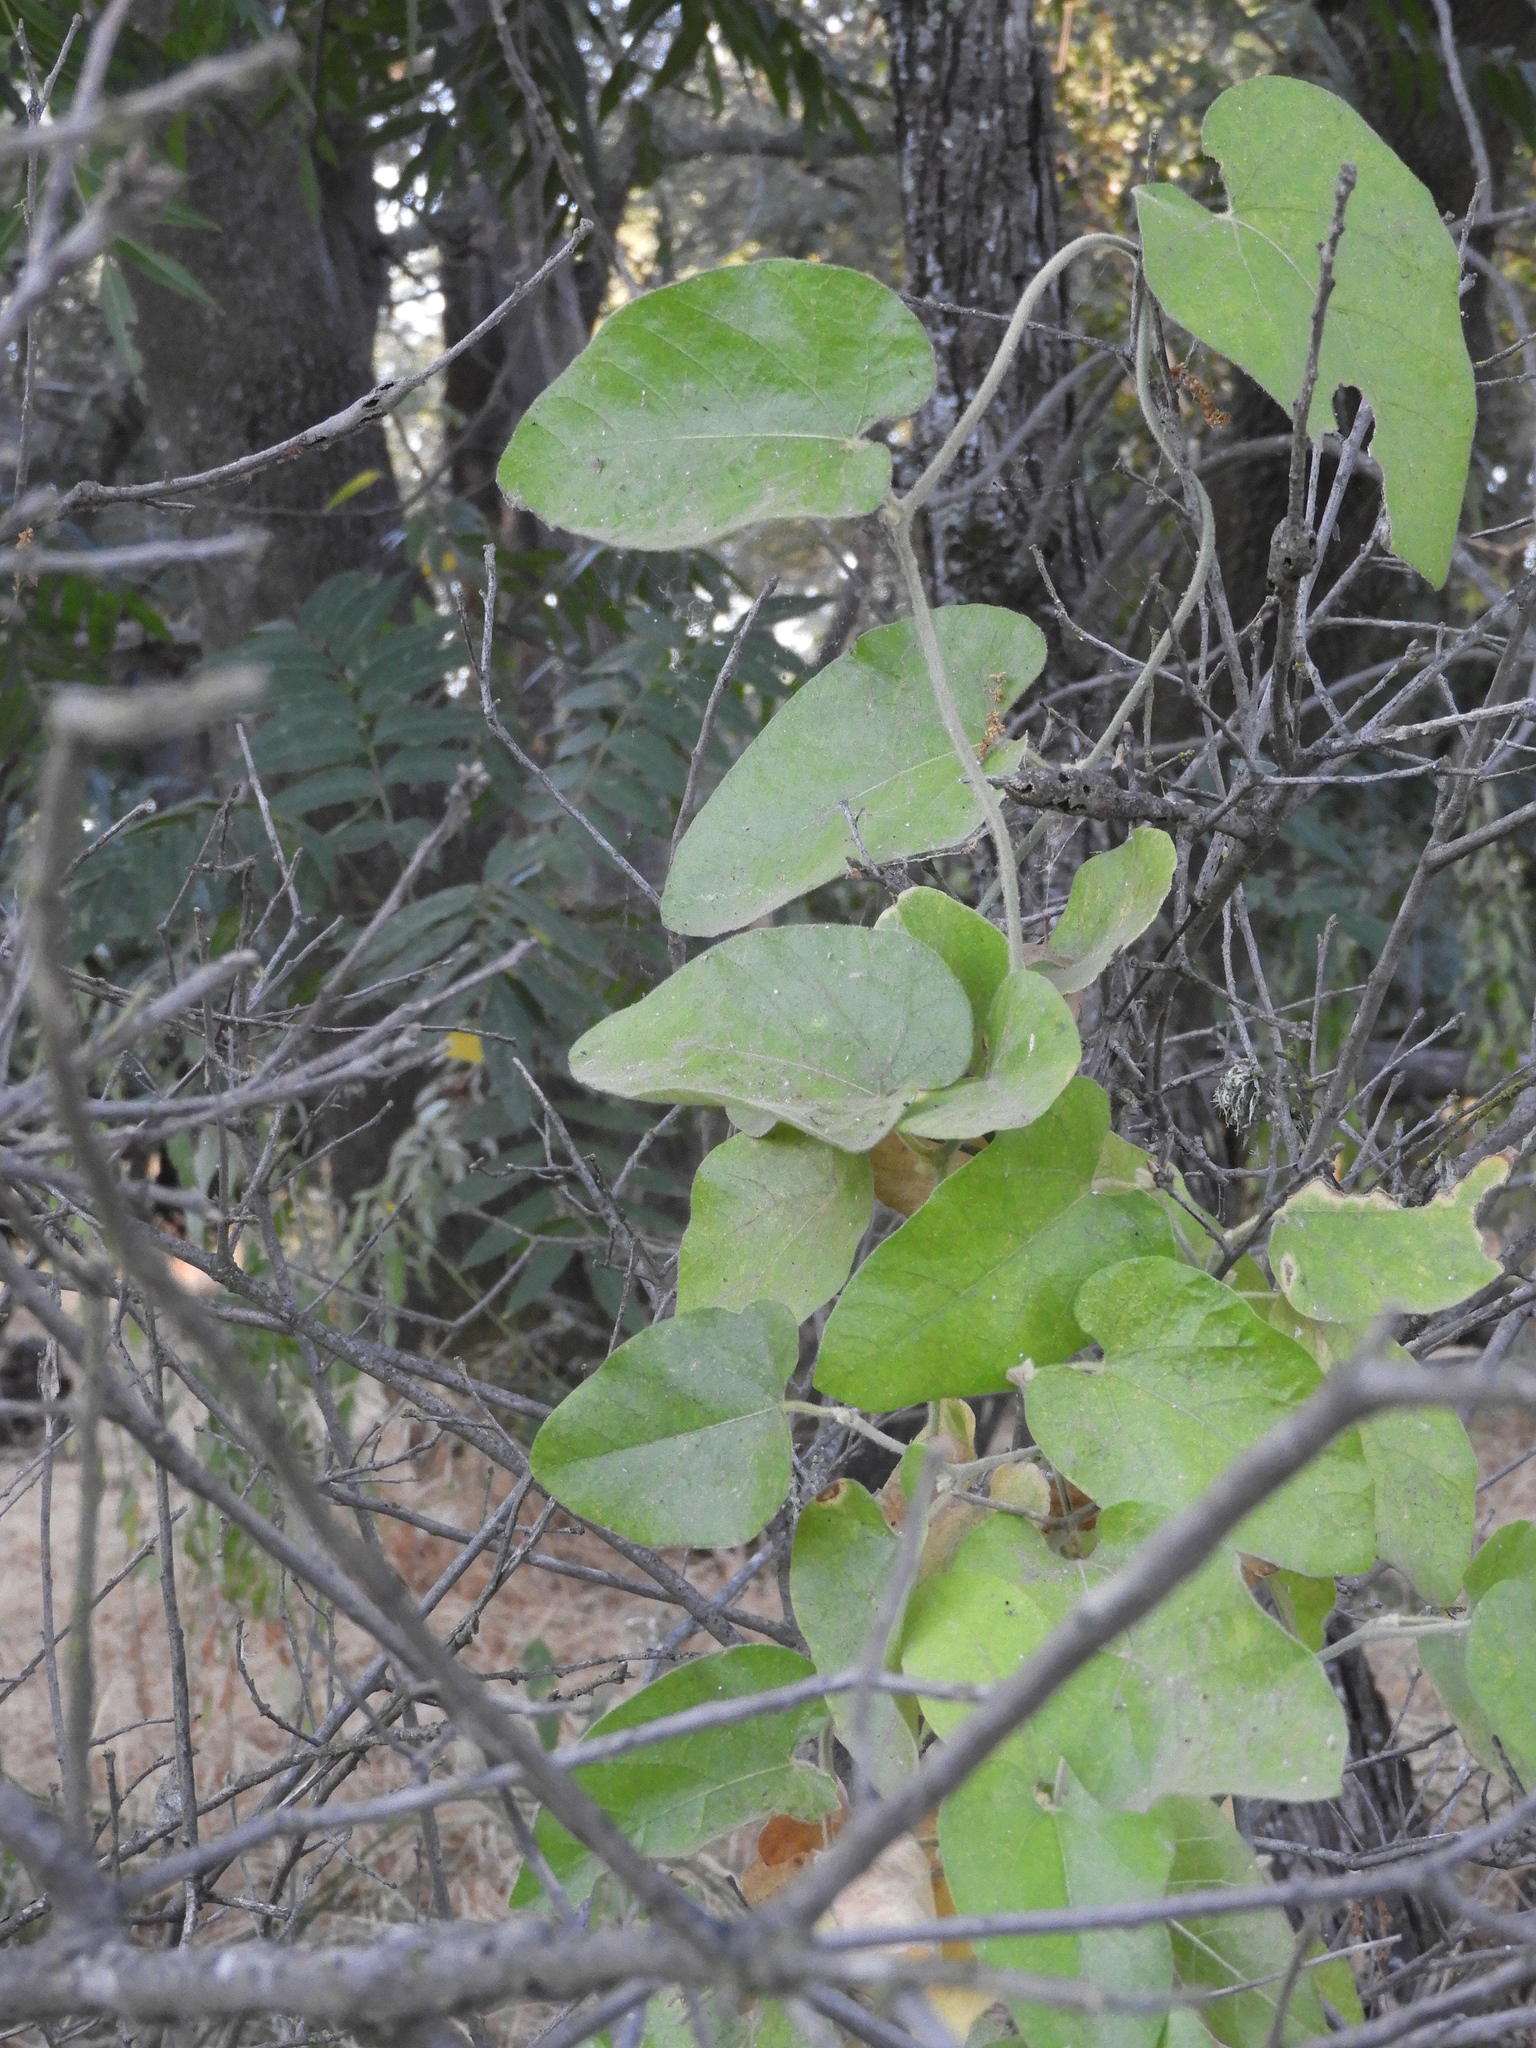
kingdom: Plantae
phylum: Tracheophyta
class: Magnoliopsida
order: Piperales
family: Aristolochiaceae
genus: Isotrema
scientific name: Isotrema californicum
